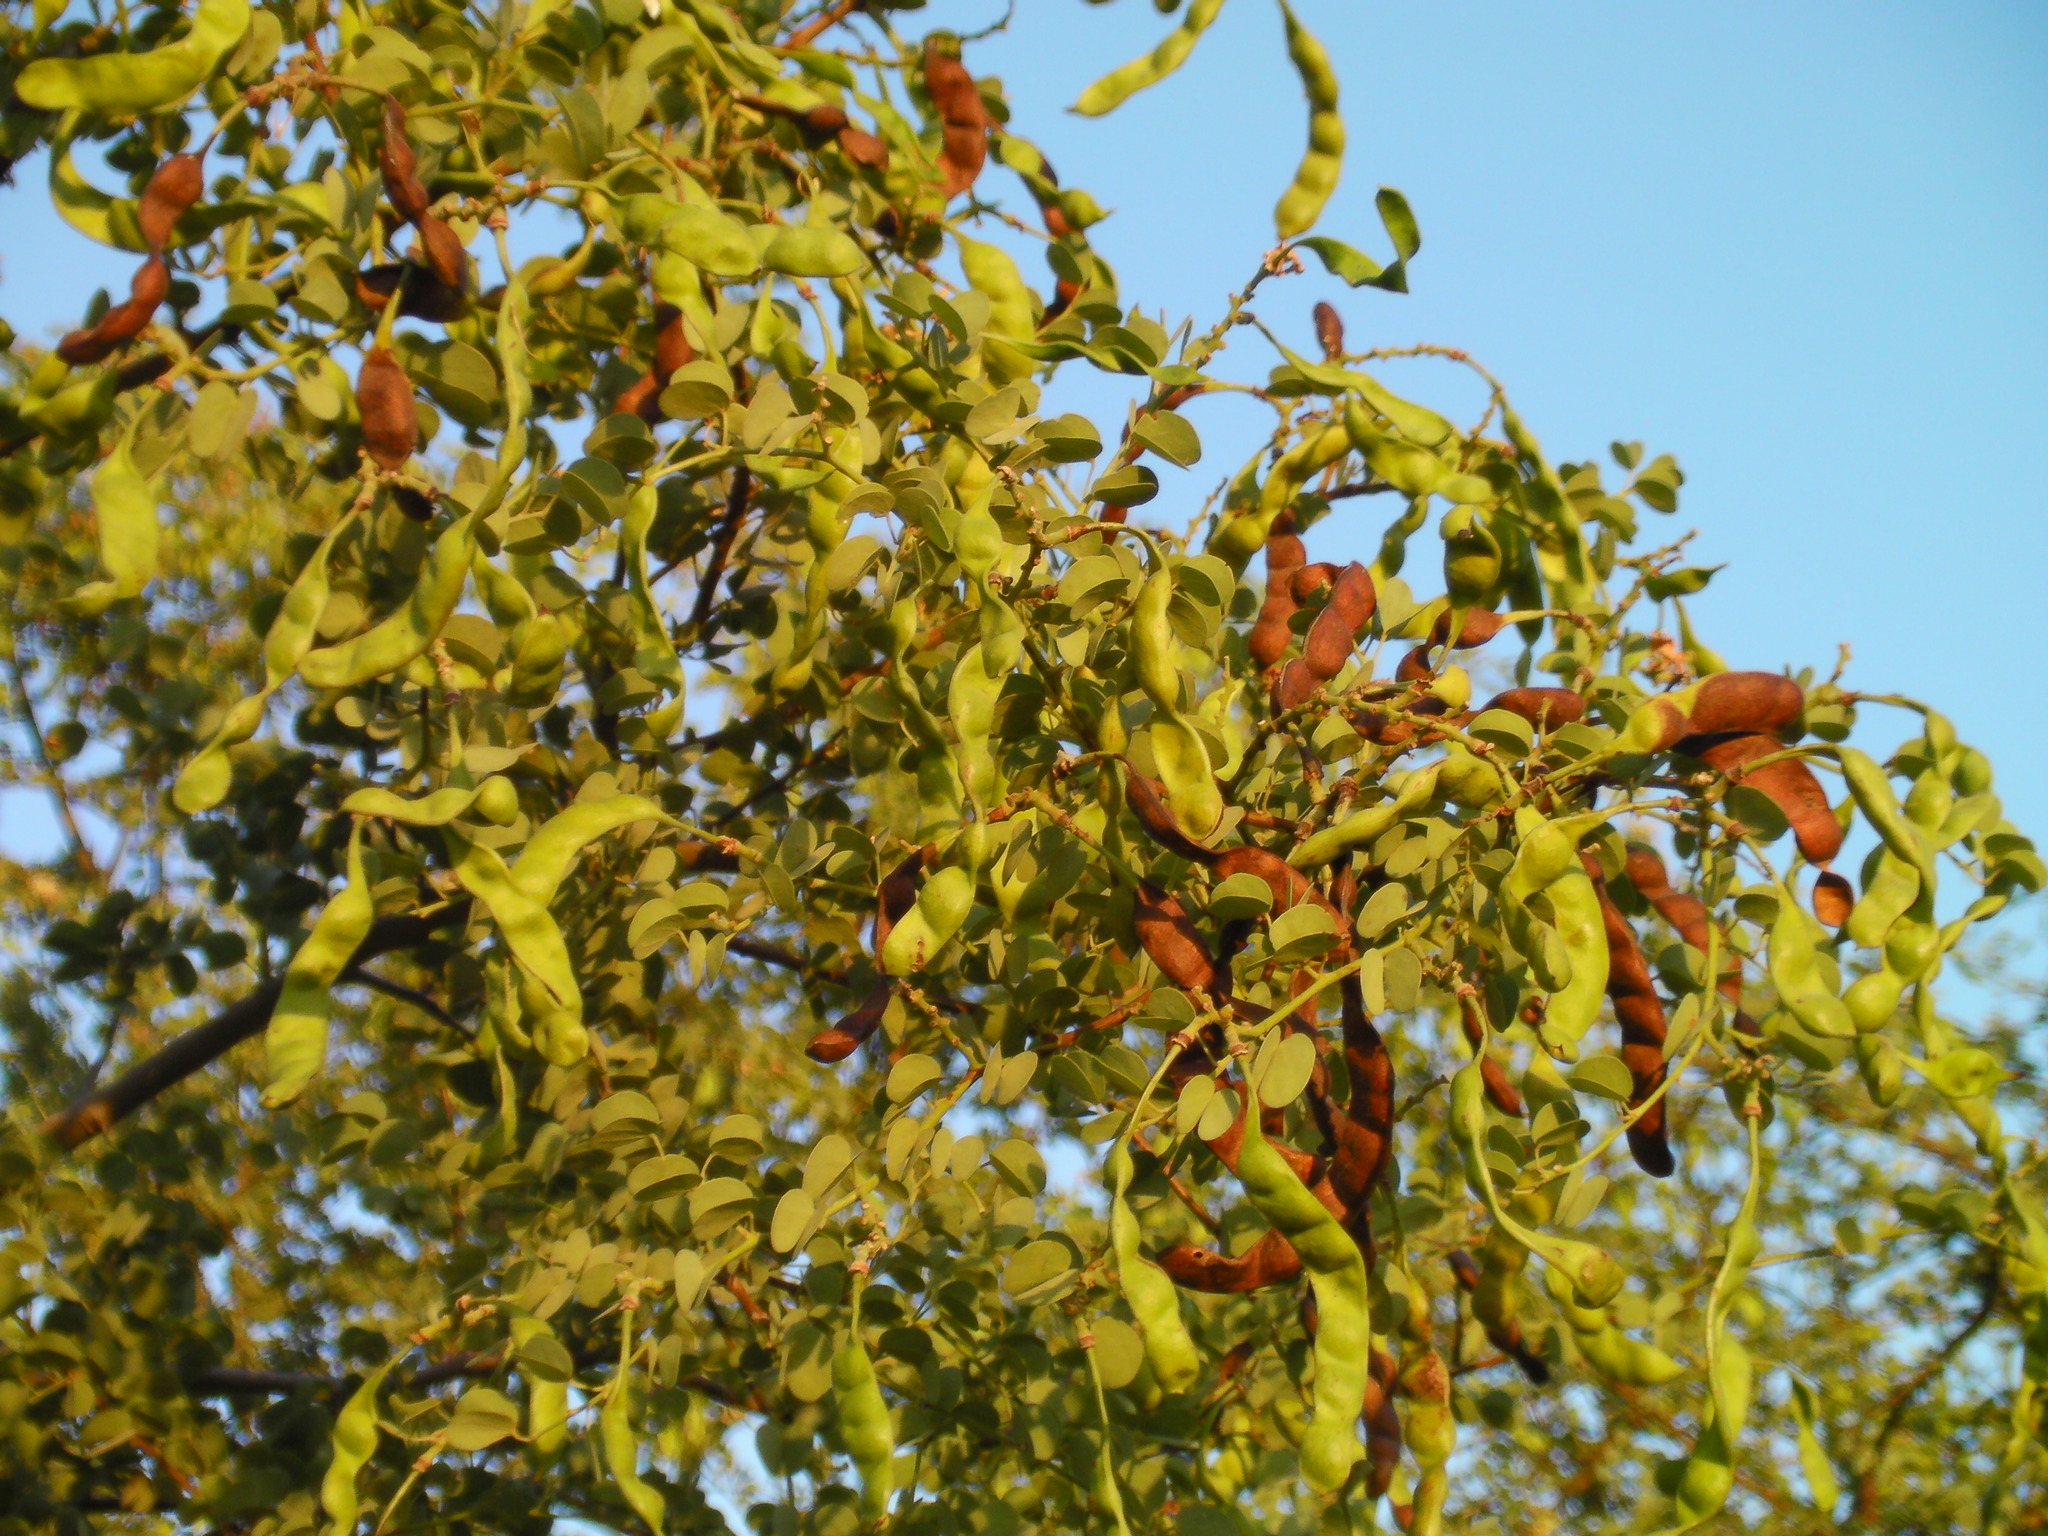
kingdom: Plantae
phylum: Tracheophyta
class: Magnoliopsida
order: Fabales
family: Fabaceae
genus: Bauhinia
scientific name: Bauhinia rufescens
